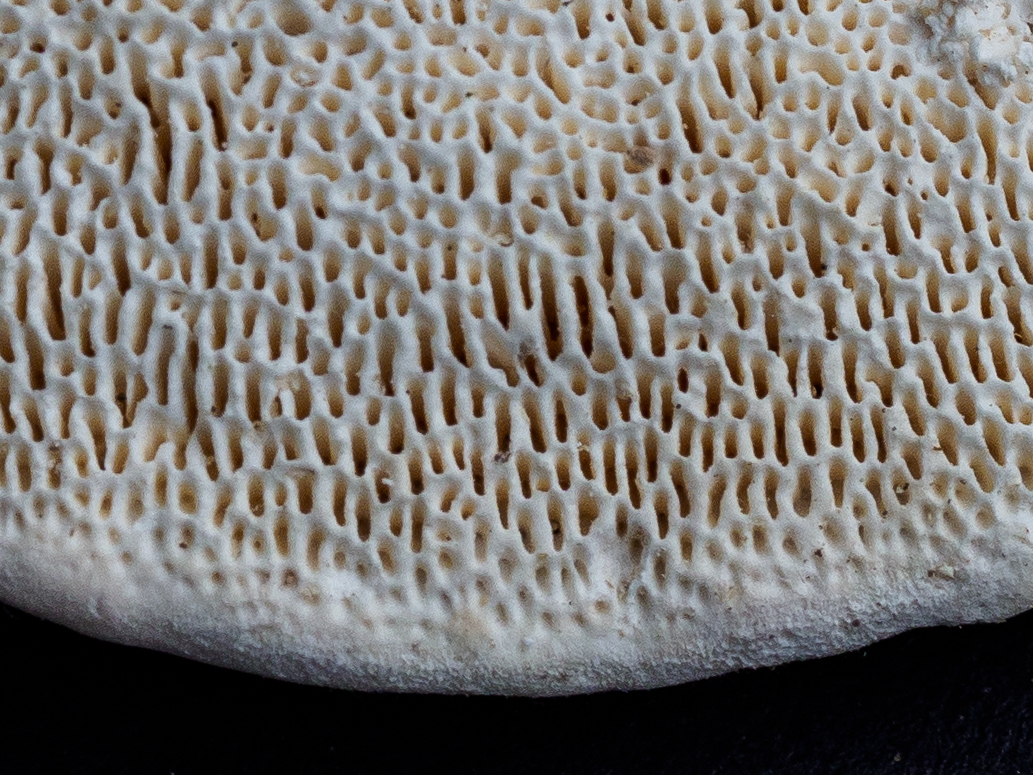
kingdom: Fungi
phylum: Basidiomycota
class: Agaricomycetes
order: Polyporales
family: Polyporaceae
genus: Trametes
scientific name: Trametes gibbosa
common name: Lumpy bracket
